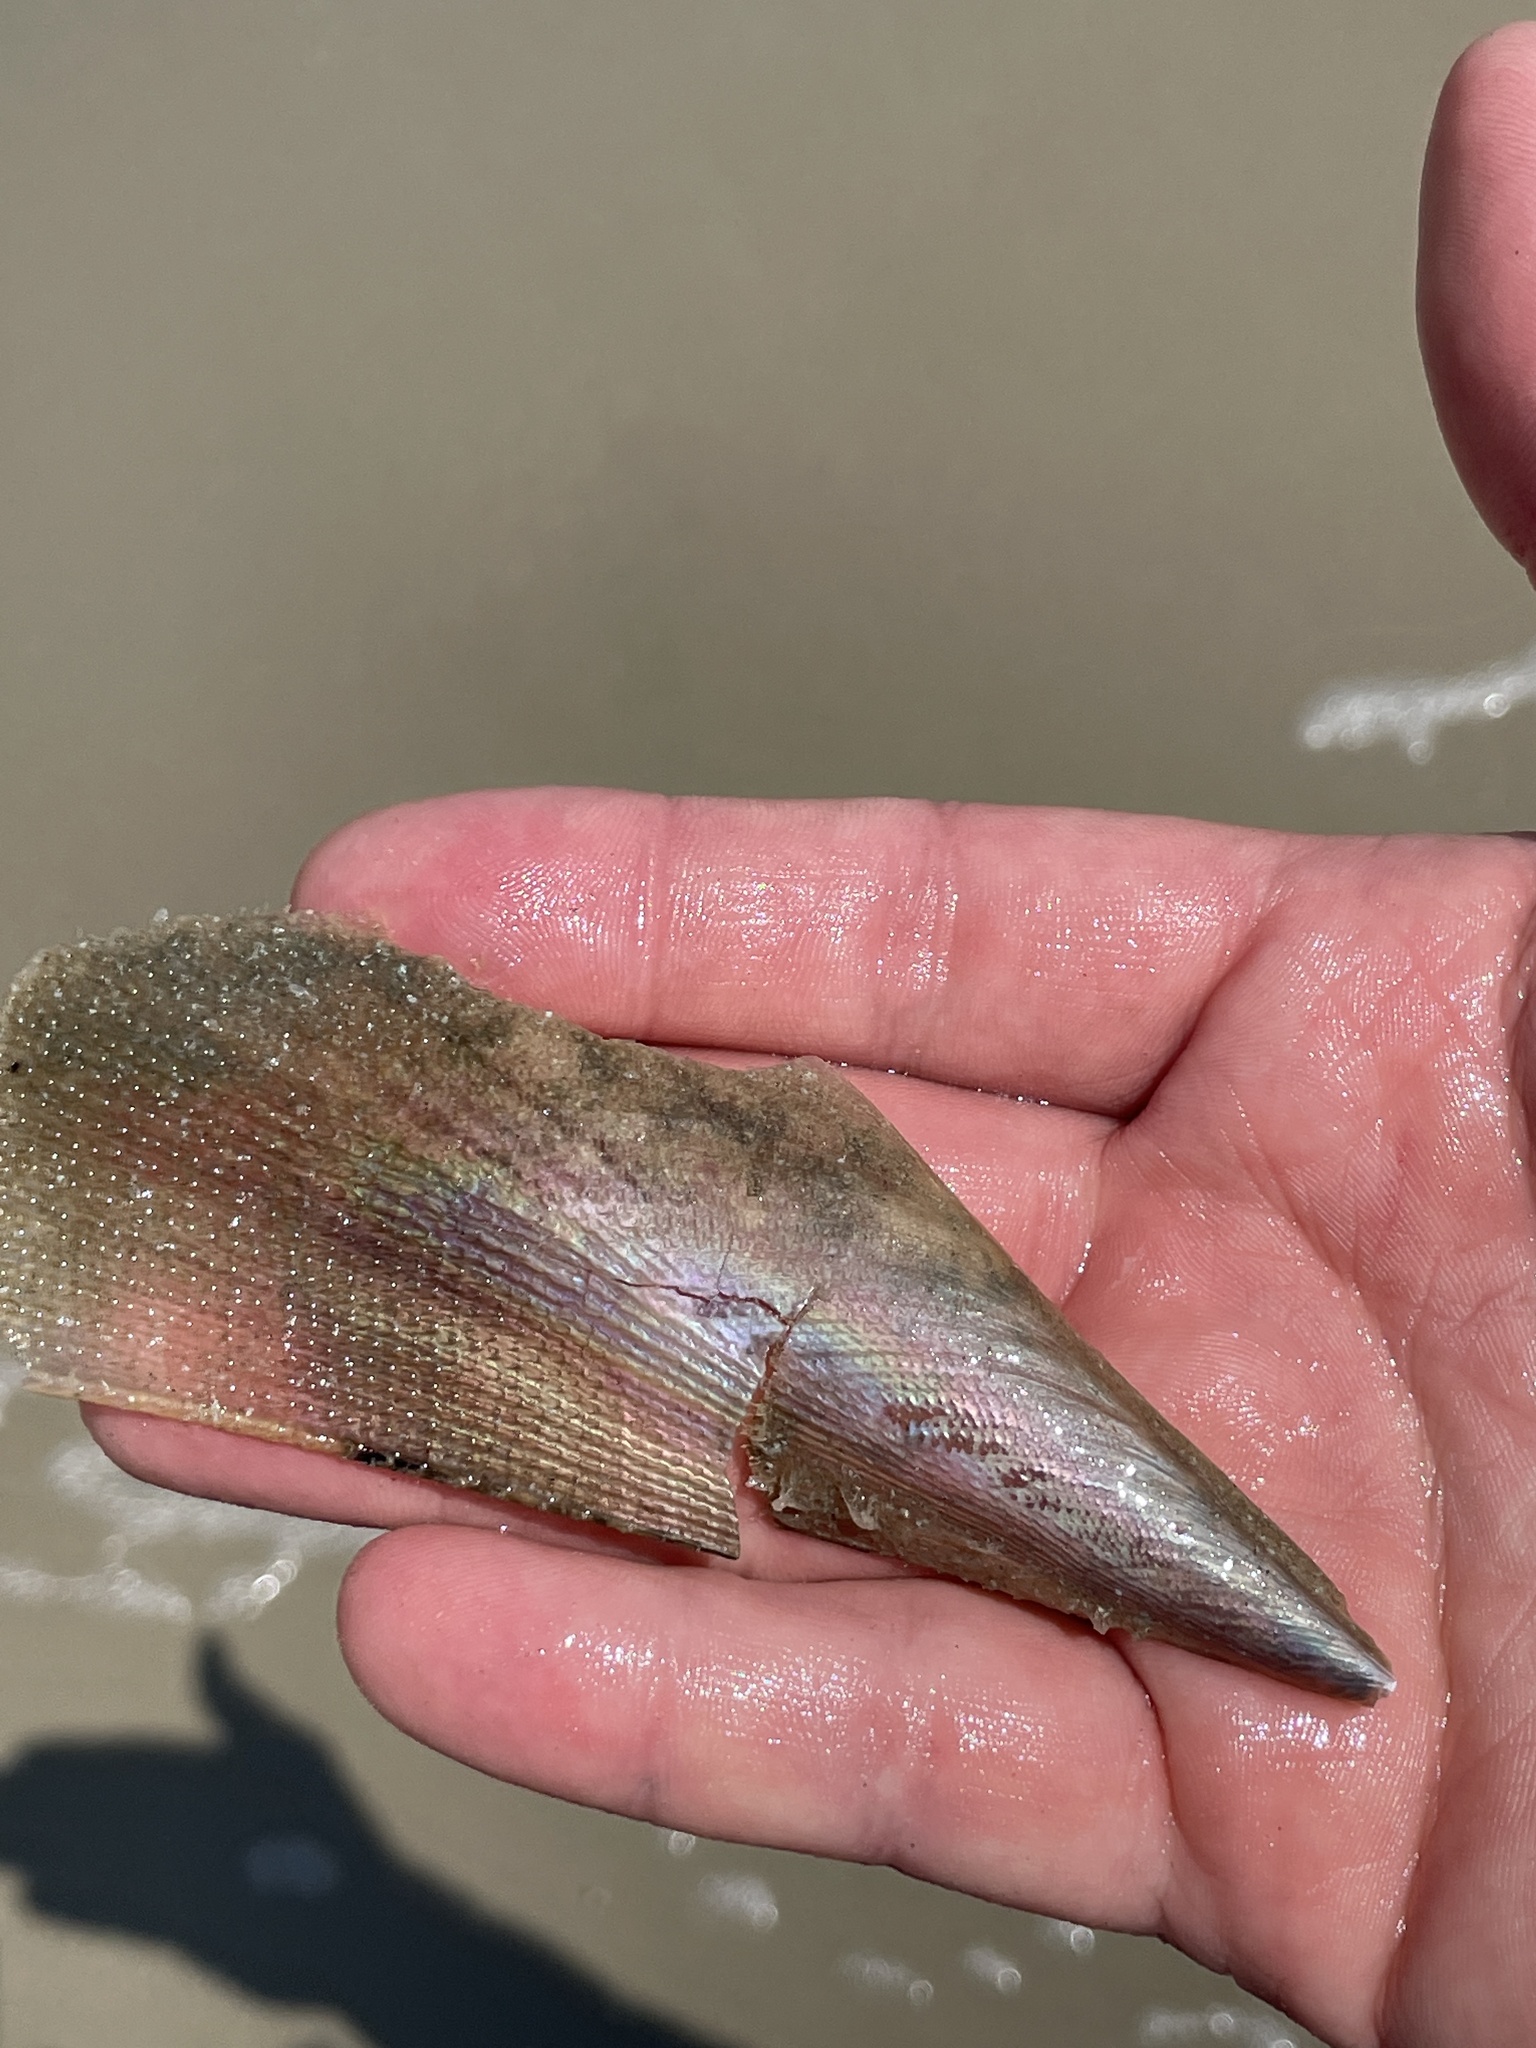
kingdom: Animalia
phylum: Mollusca
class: Bivalvia
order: Ostreida
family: Pinnidae
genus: Atrina
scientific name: Atrina serrata
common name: Saw-toothed penshell
